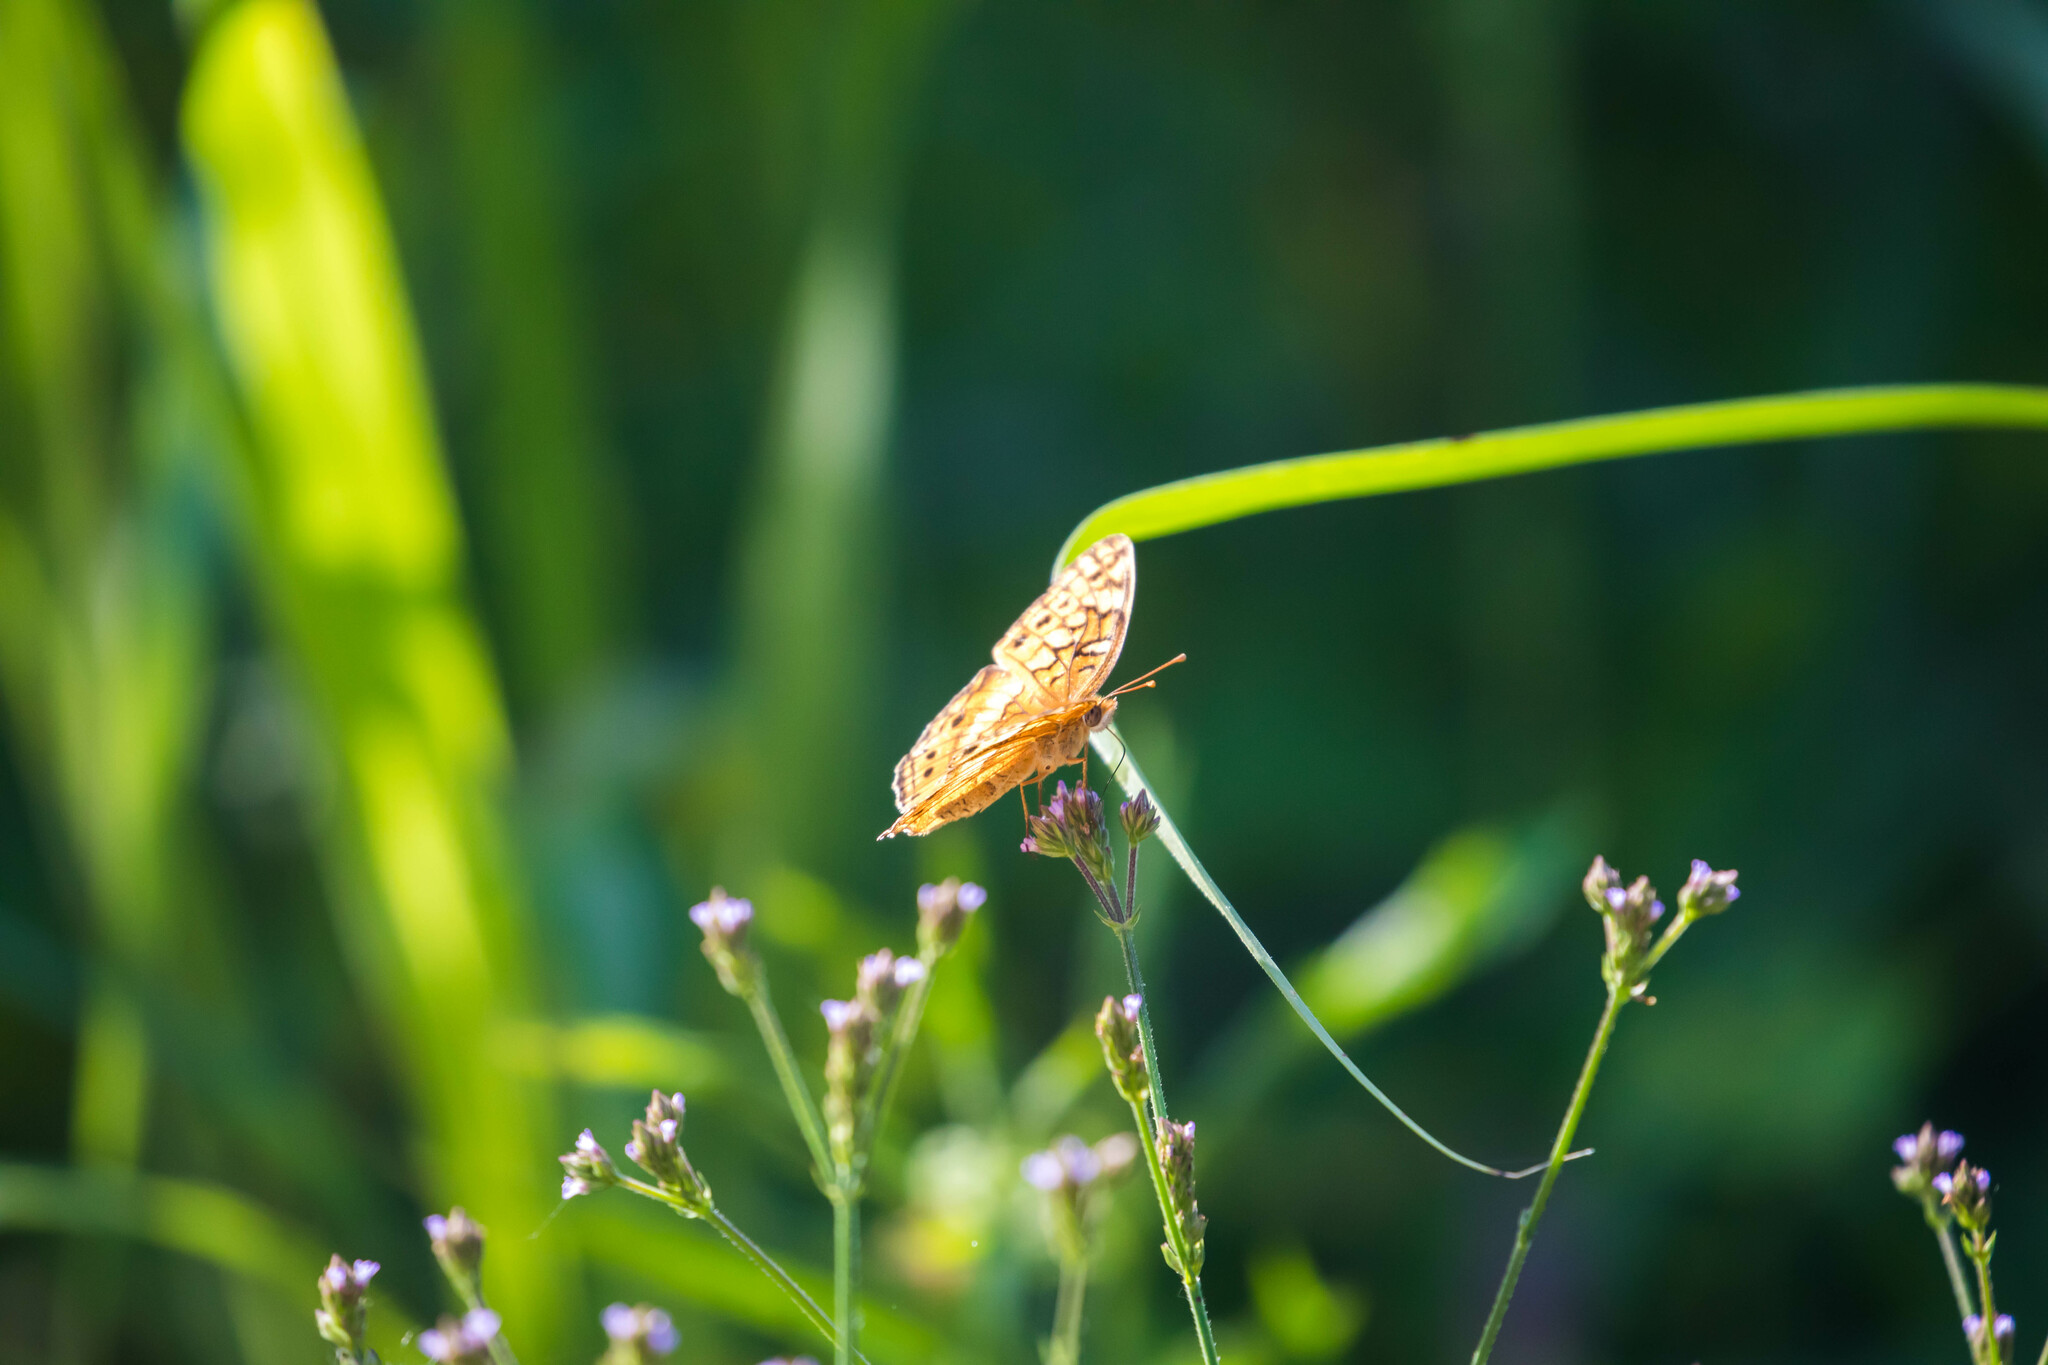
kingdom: Animalia
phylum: Arthropoda
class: Insecta
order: Lepidoptera
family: Nymphalidae
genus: Euptoieta
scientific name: Euptoieta claudia
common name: Variegated fritillary
